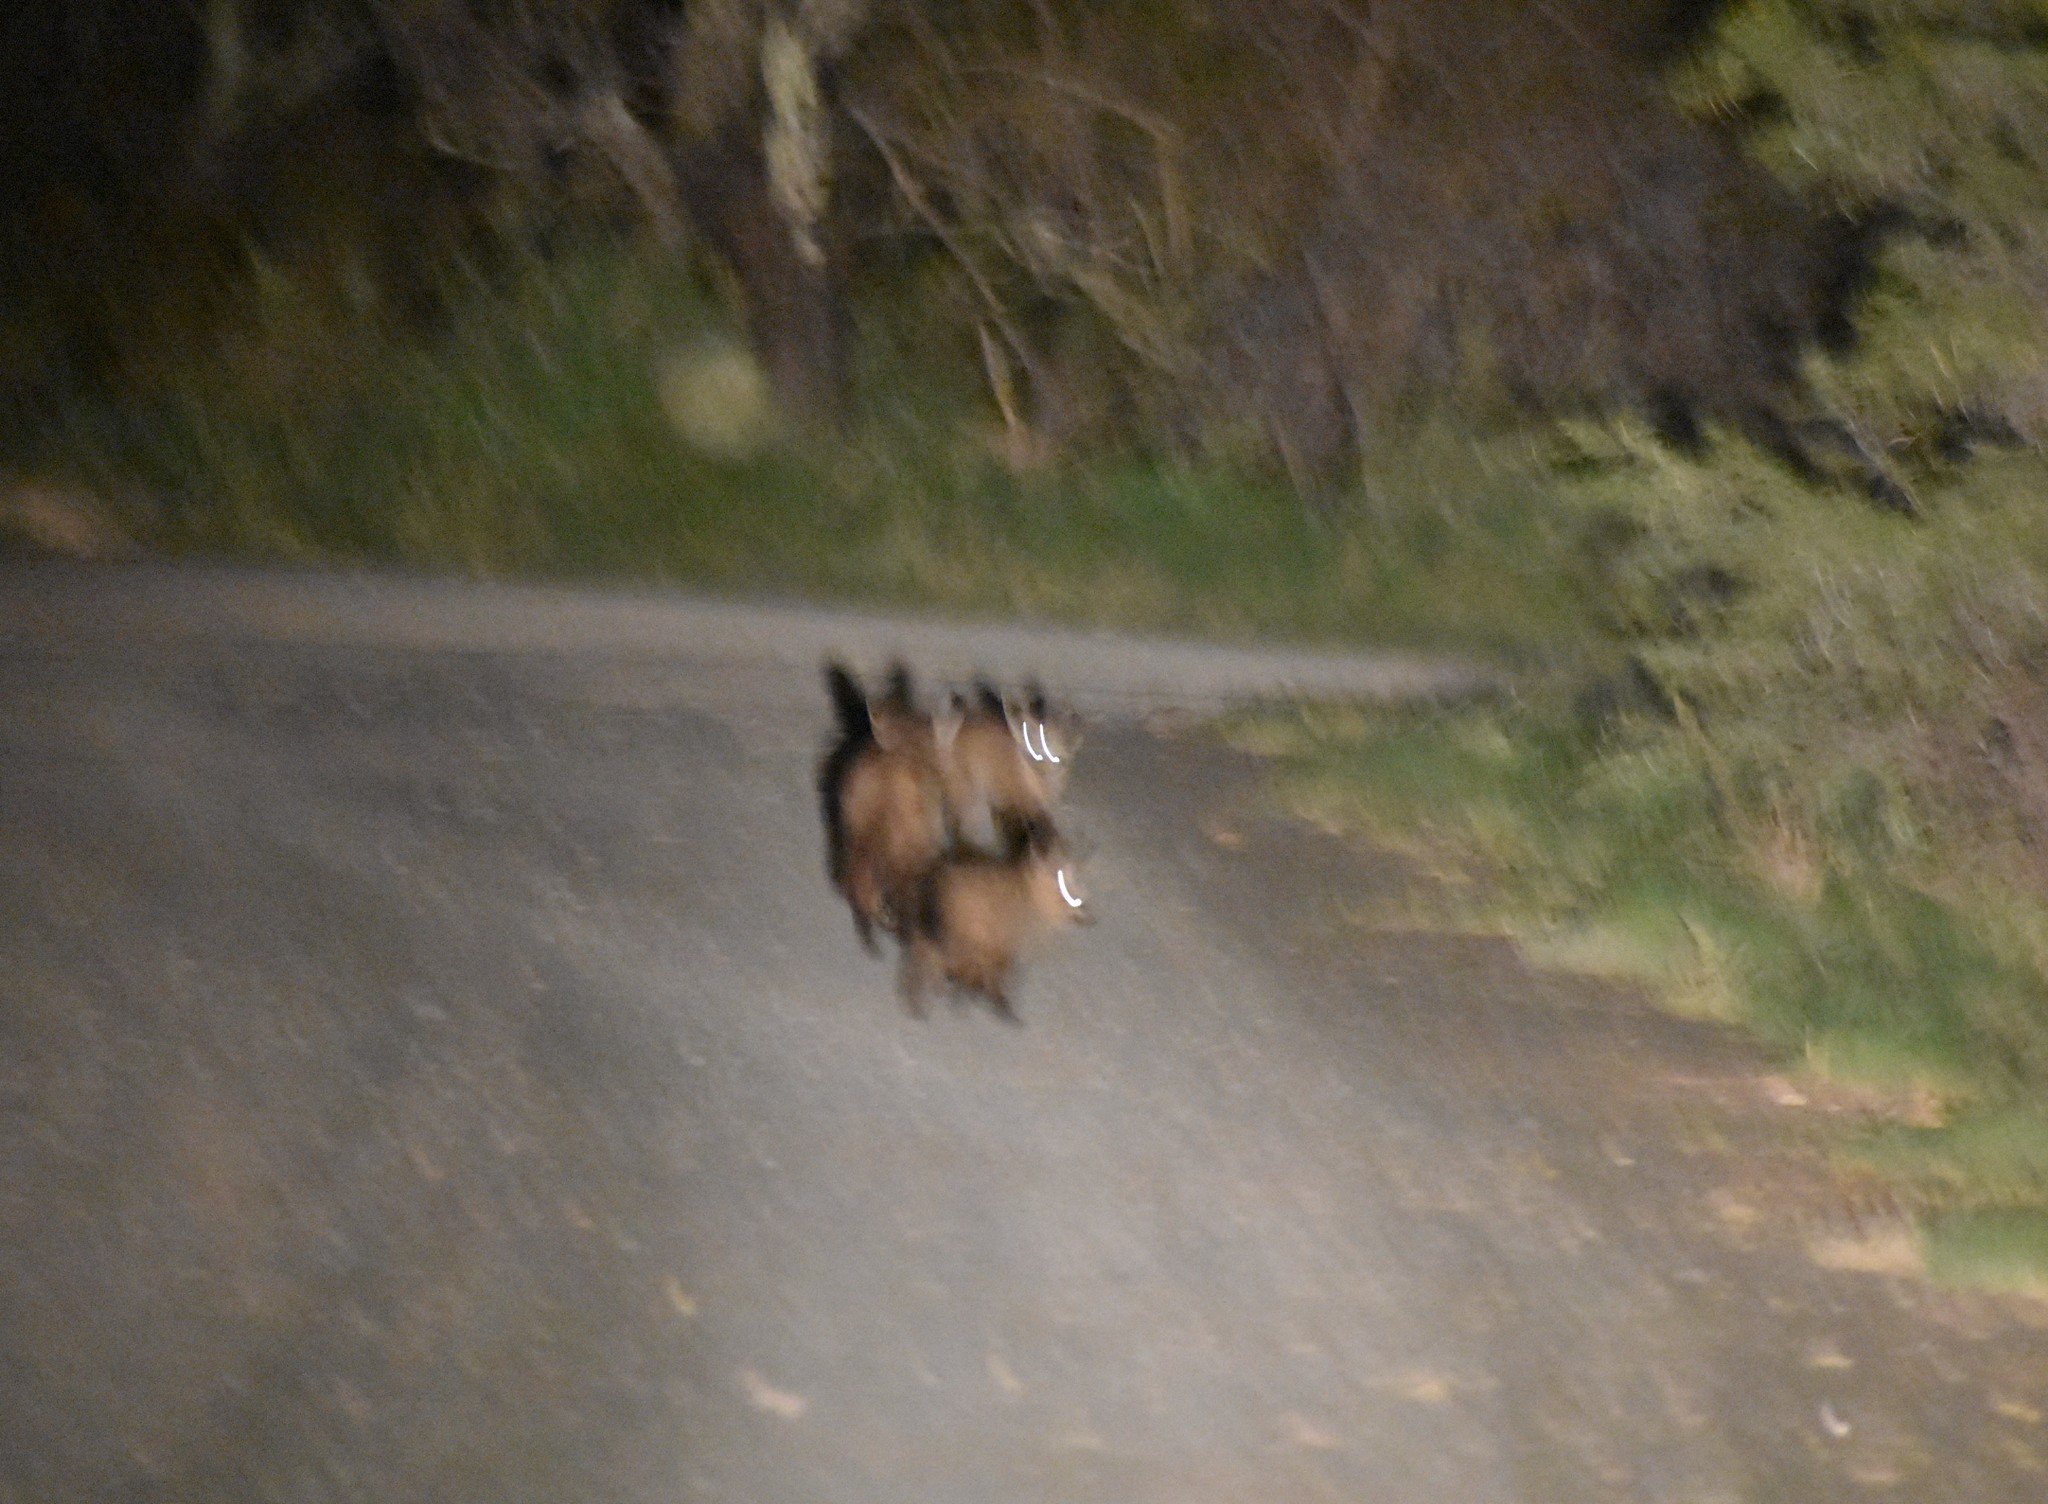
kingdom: Animalia
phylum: Chordata
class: Mammalia
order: Carnivora
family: Canidae
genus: Otocyon
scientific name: Otocyon megalotis
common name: Bat-eared fox
